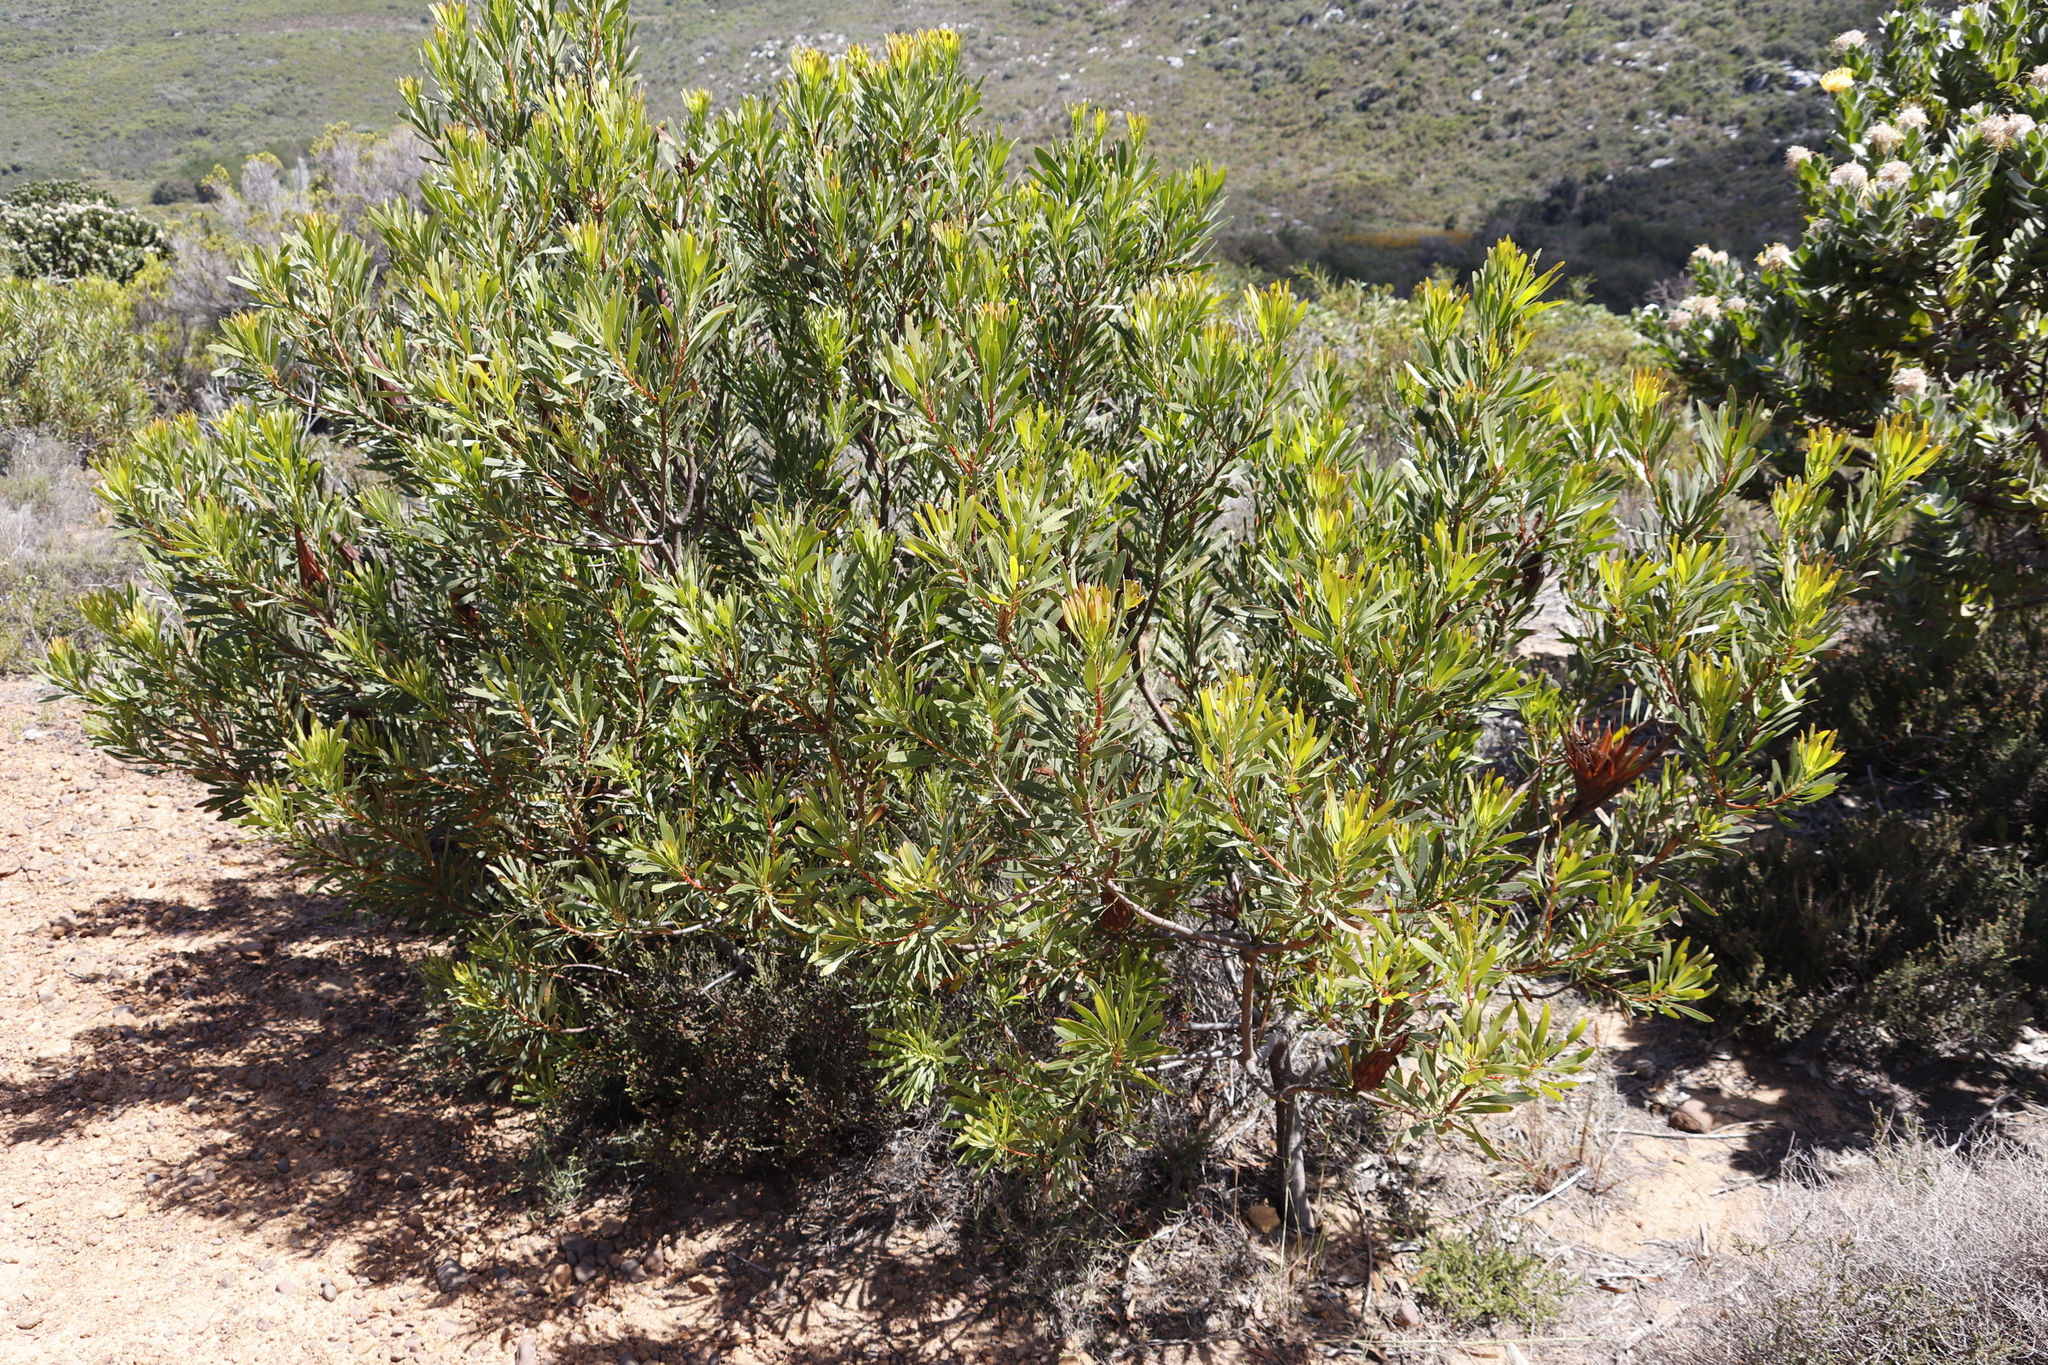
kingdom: Plantae
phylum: Tracheophyta
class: Magnoliopsida
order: Proteales
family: Proteaceae
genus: Protea
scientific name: Protea repens
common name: Sugarbush
